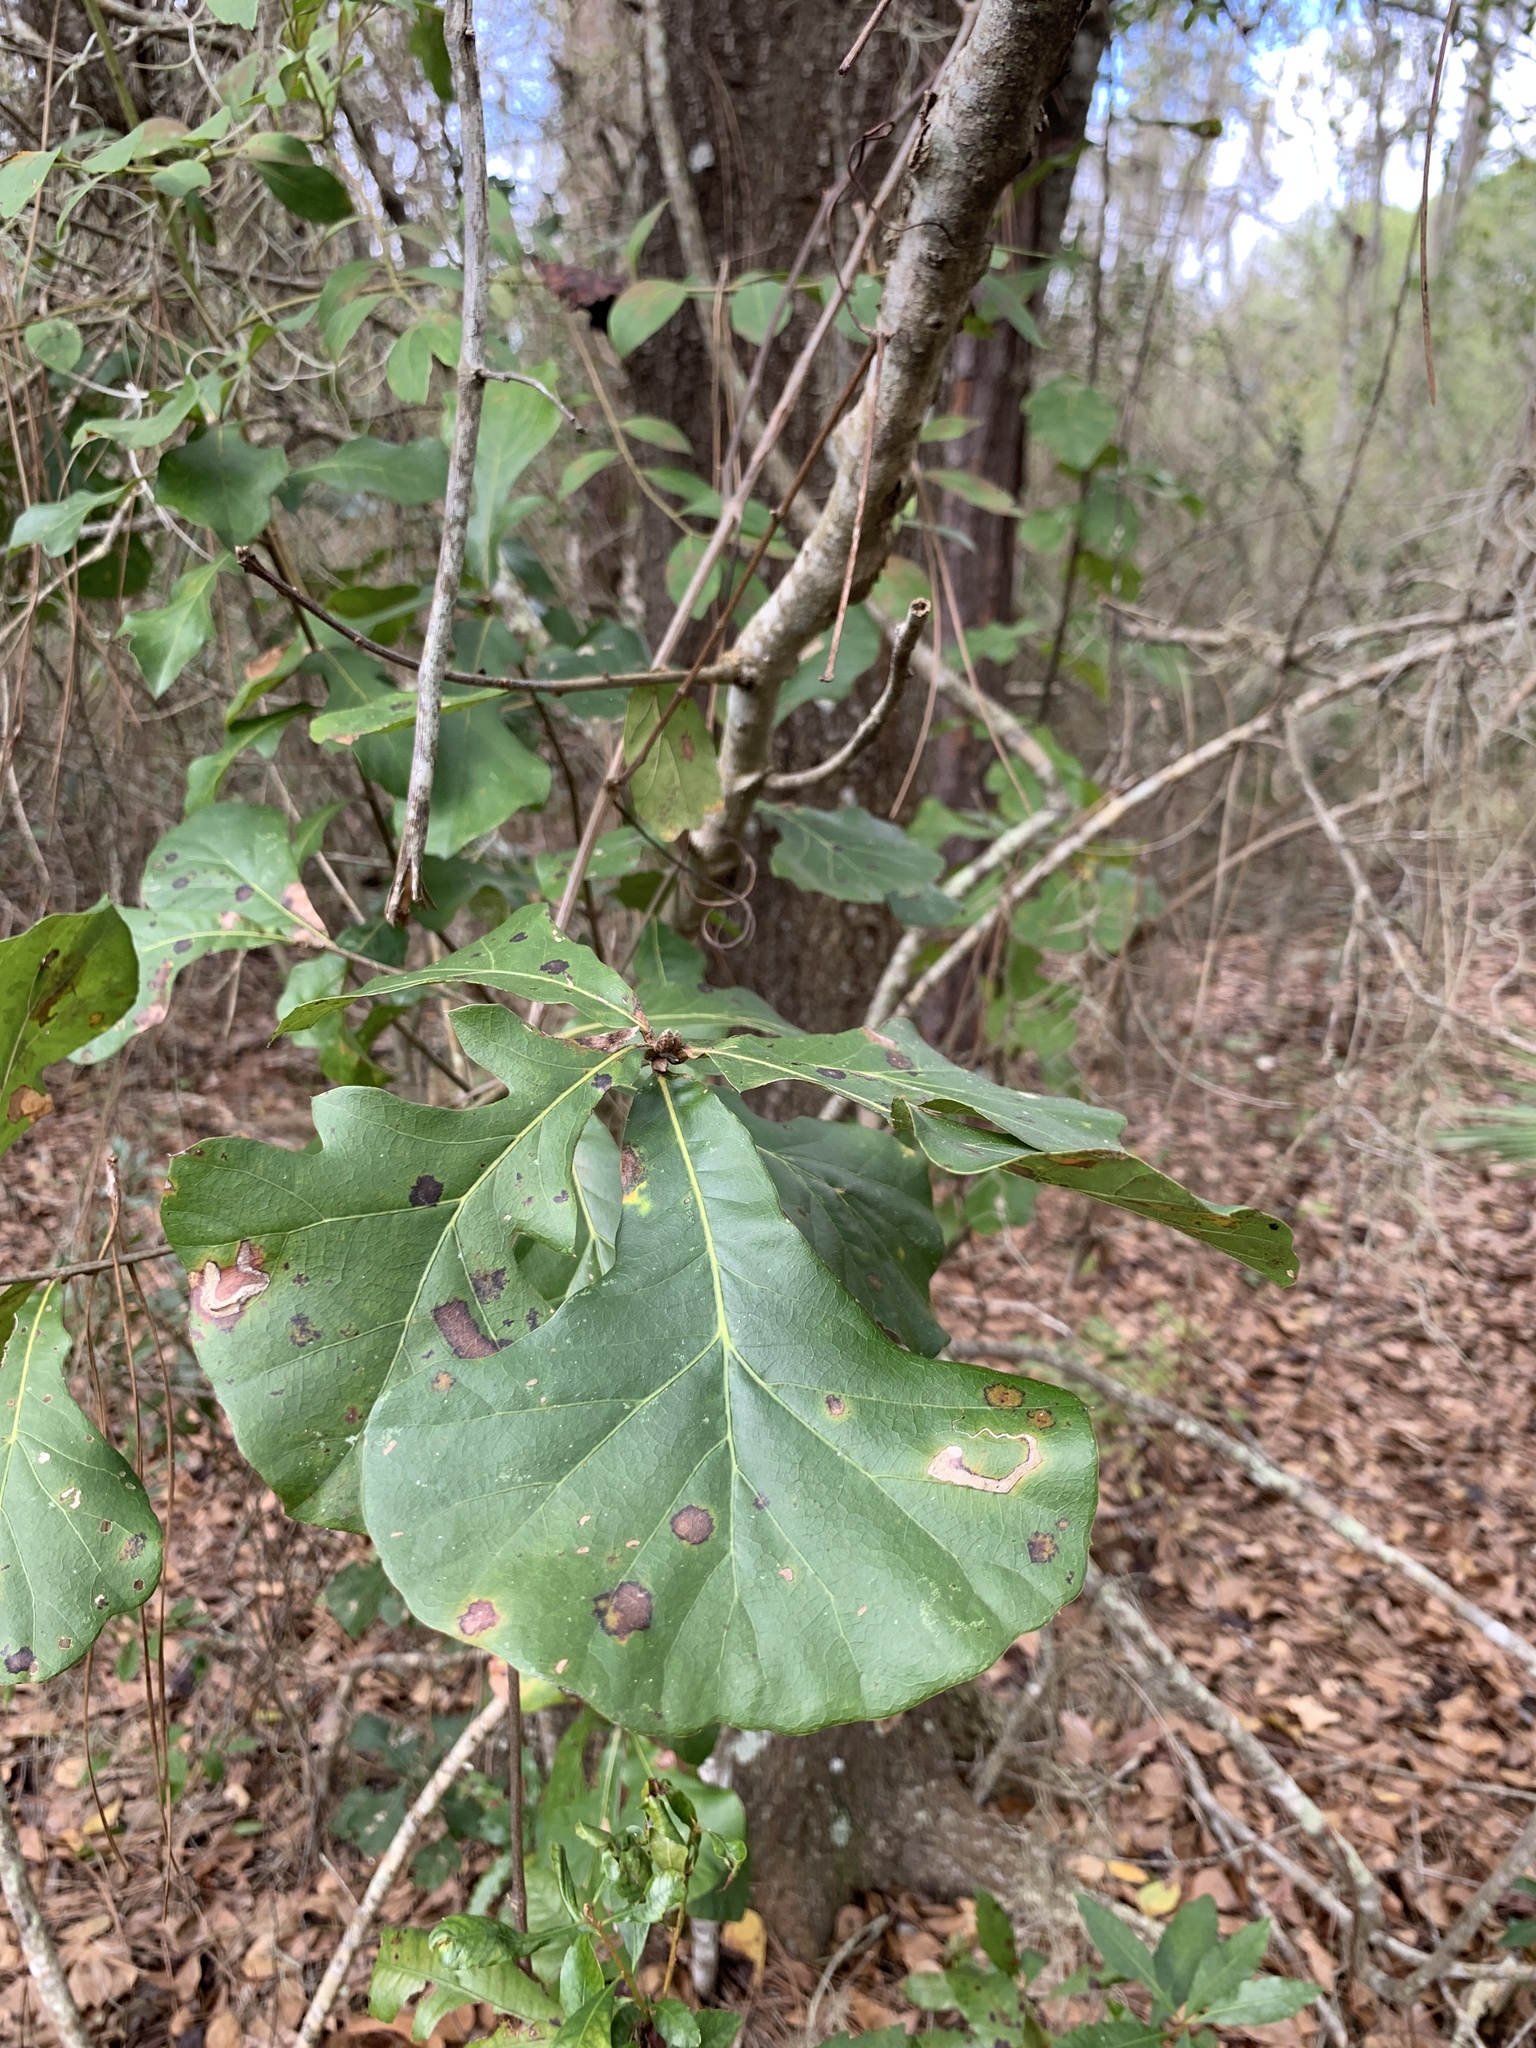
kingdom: Plantae
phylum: Tracheophyta
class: Magnoliopsida
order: Fagales
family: Fagaceae
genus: Quercus
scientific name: Quercus nigra
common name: Water oak
